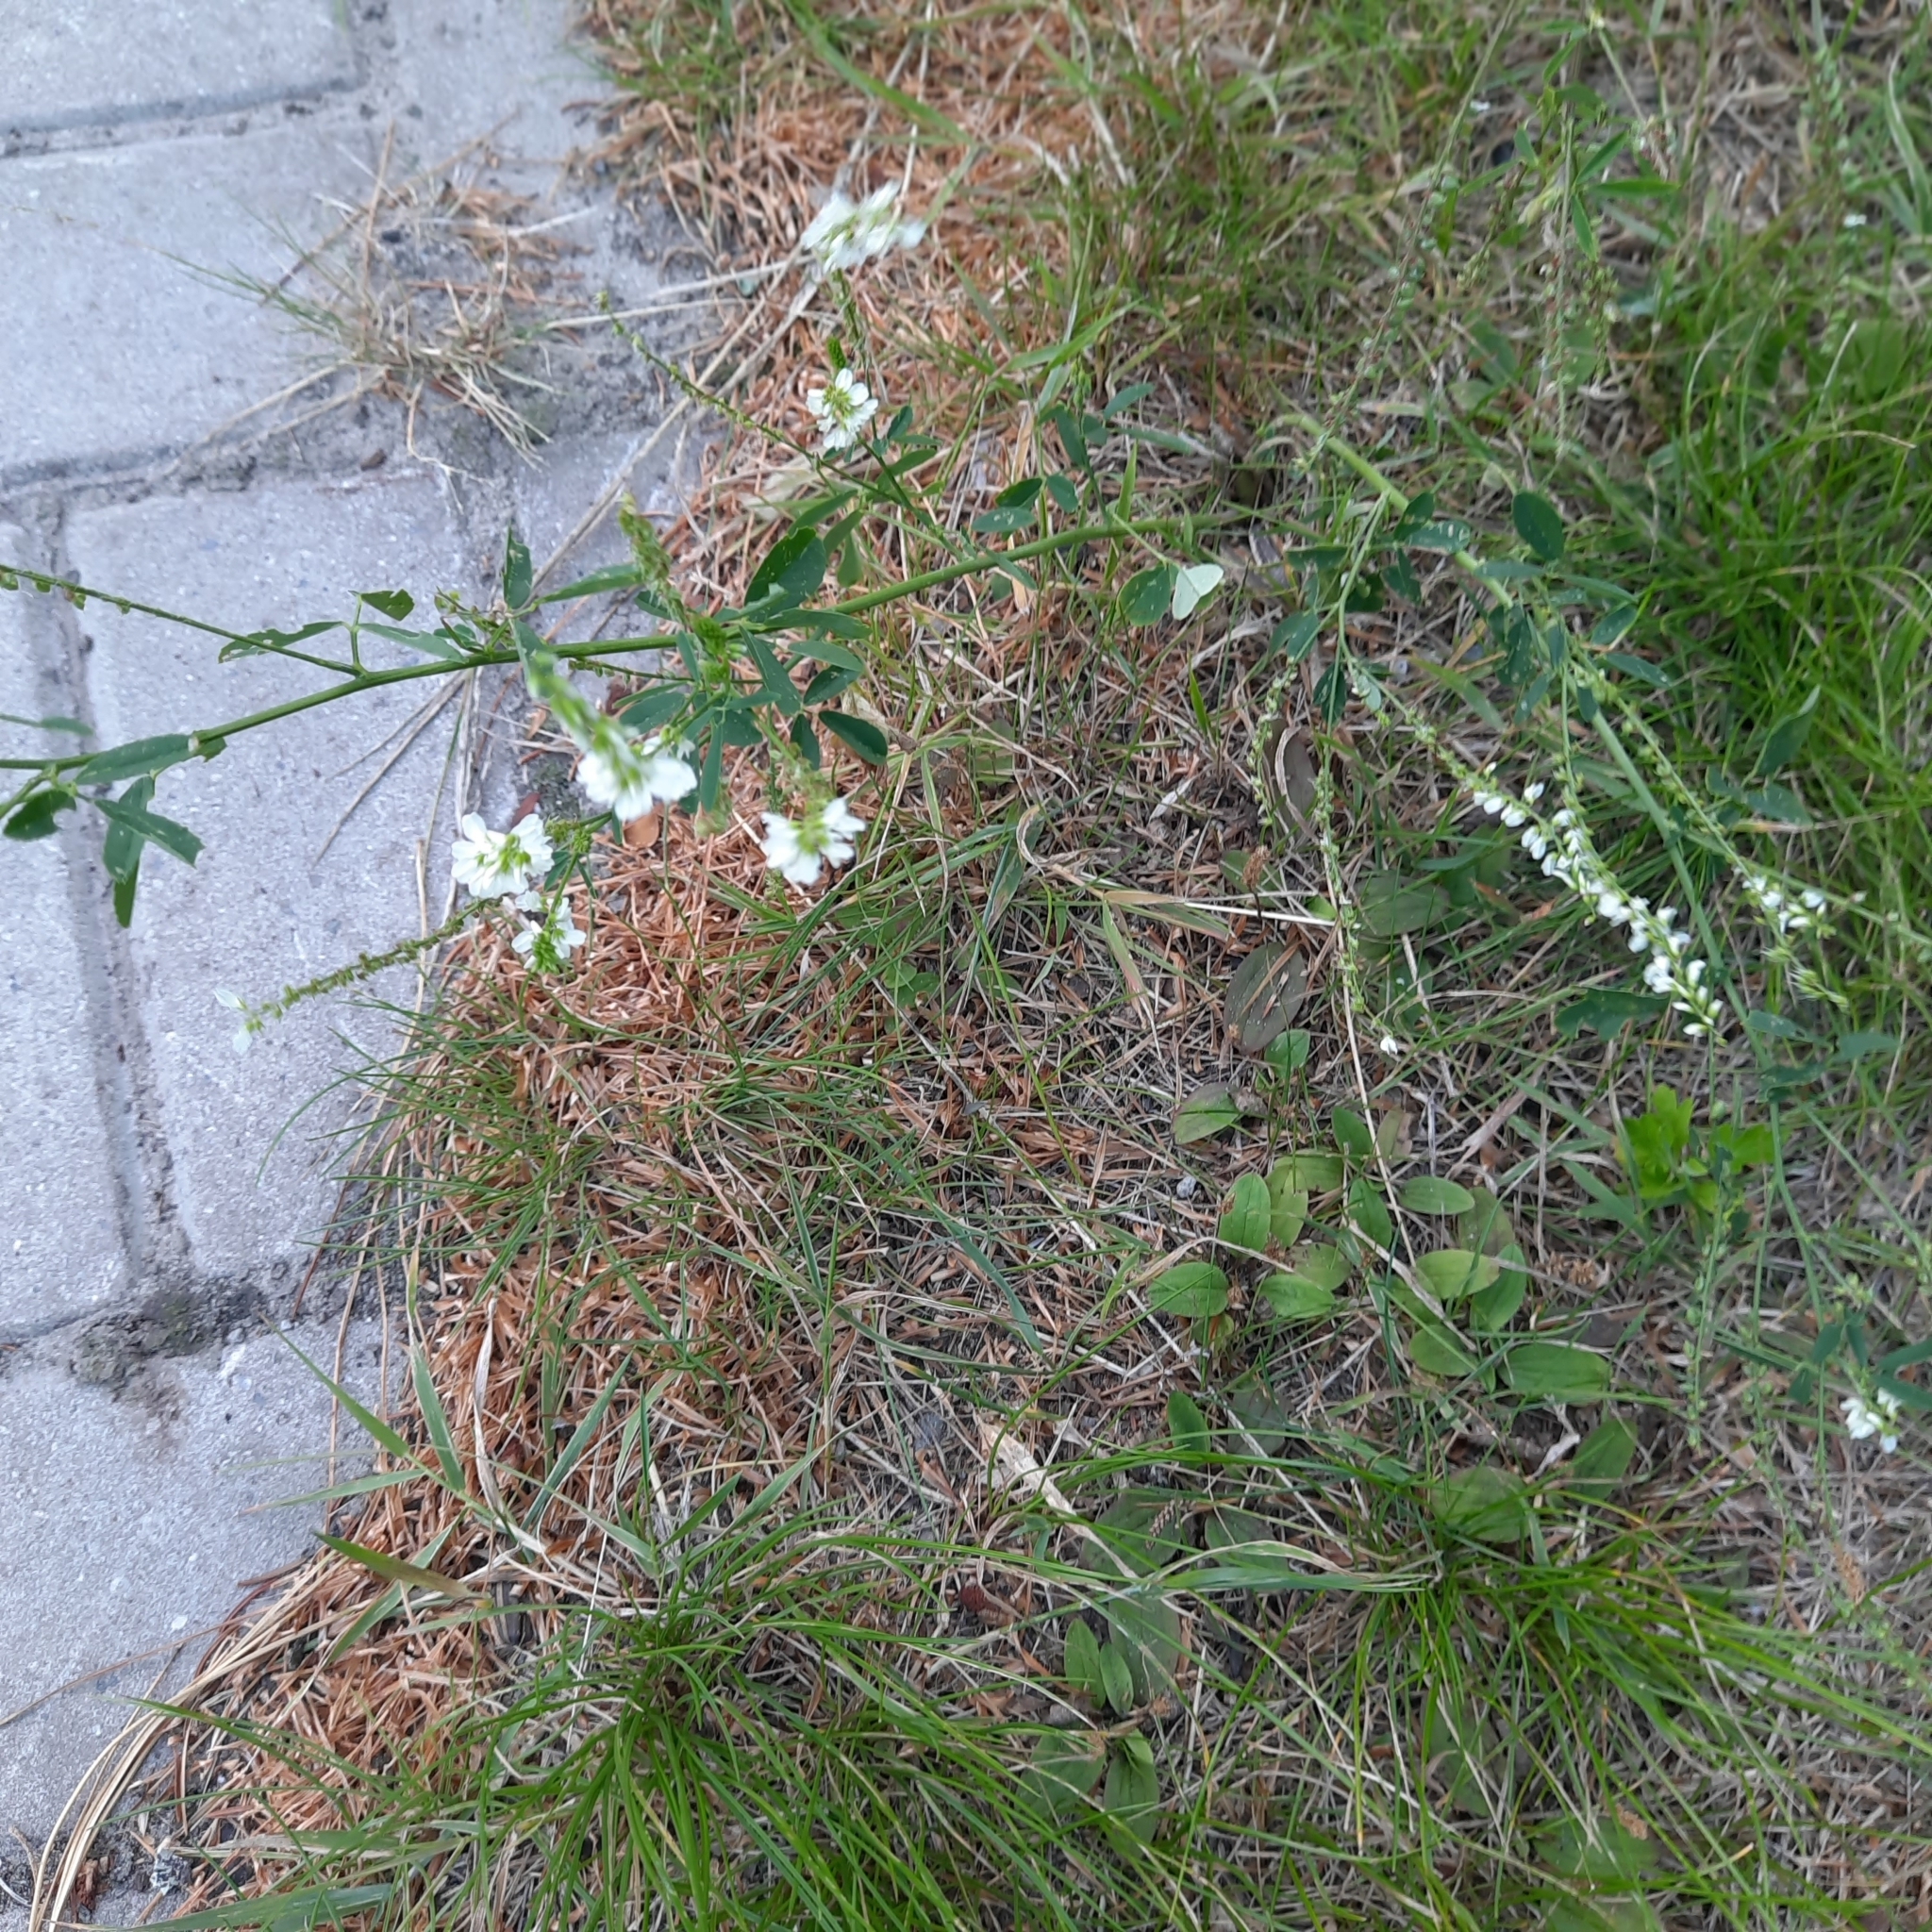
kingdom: Plantae
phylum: Tracheophyta
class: Magnoliopsida
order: Fabales
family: Fabaceae
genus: Melilotus
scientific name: Melilotus albus
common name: White melilot
